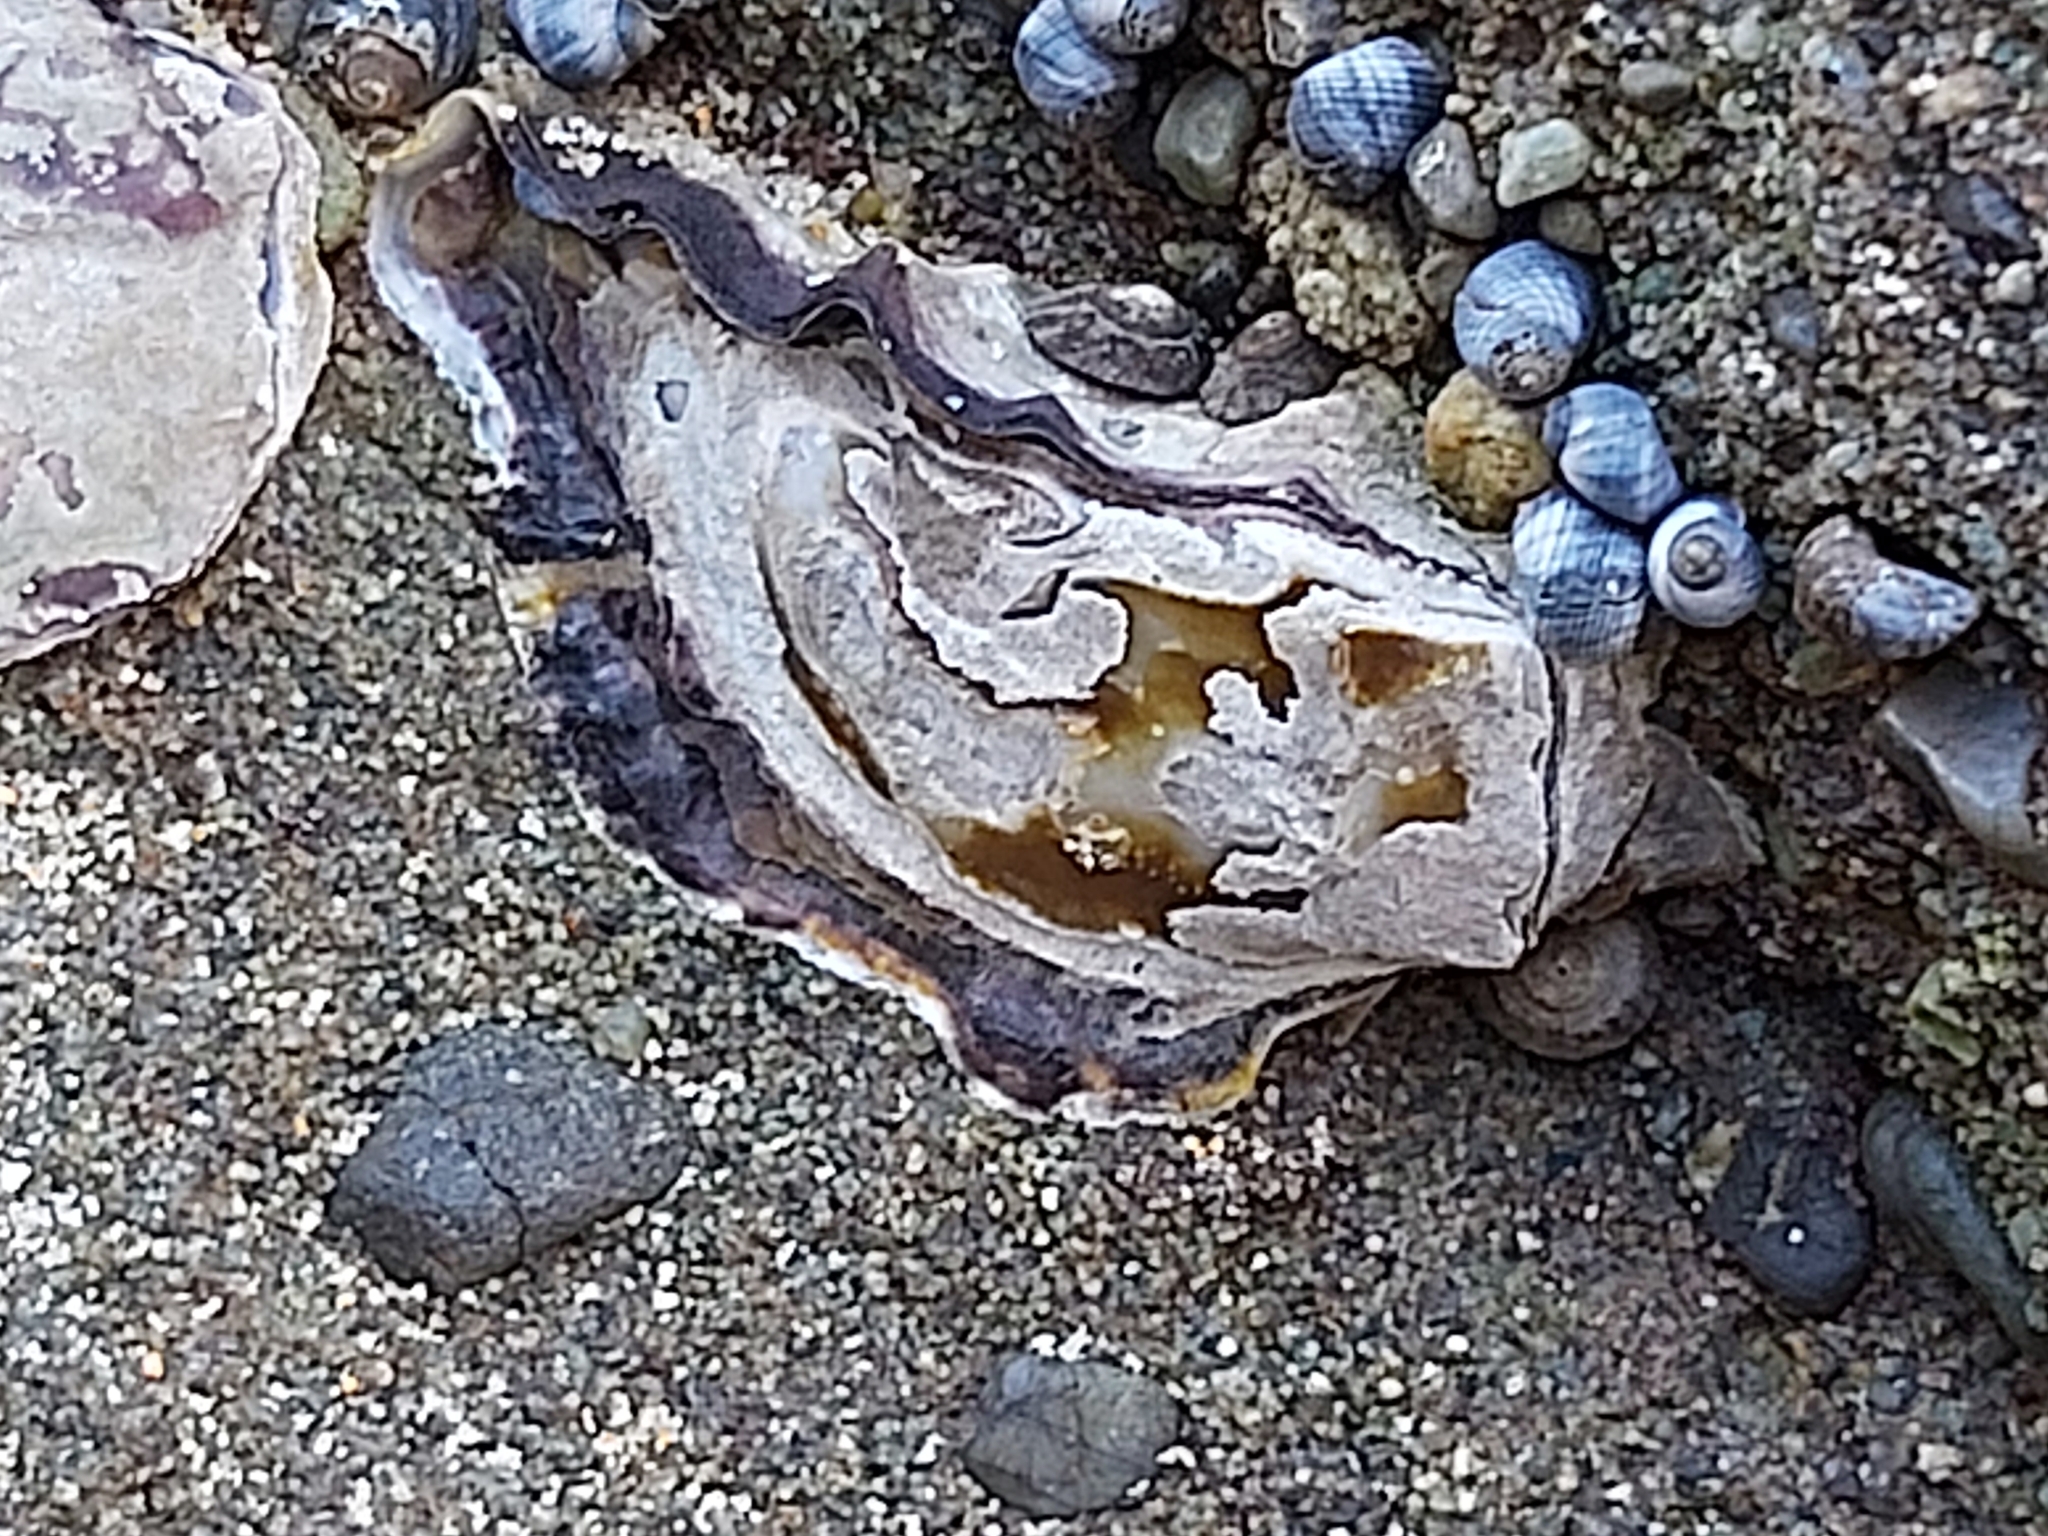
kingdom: Animalia
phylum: Mollusca
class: Bivalvia
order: Ostreida
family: Ostreidae
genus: Saccostrea
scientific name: Saccostrea glomerata
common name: Sydney cupped oyster
